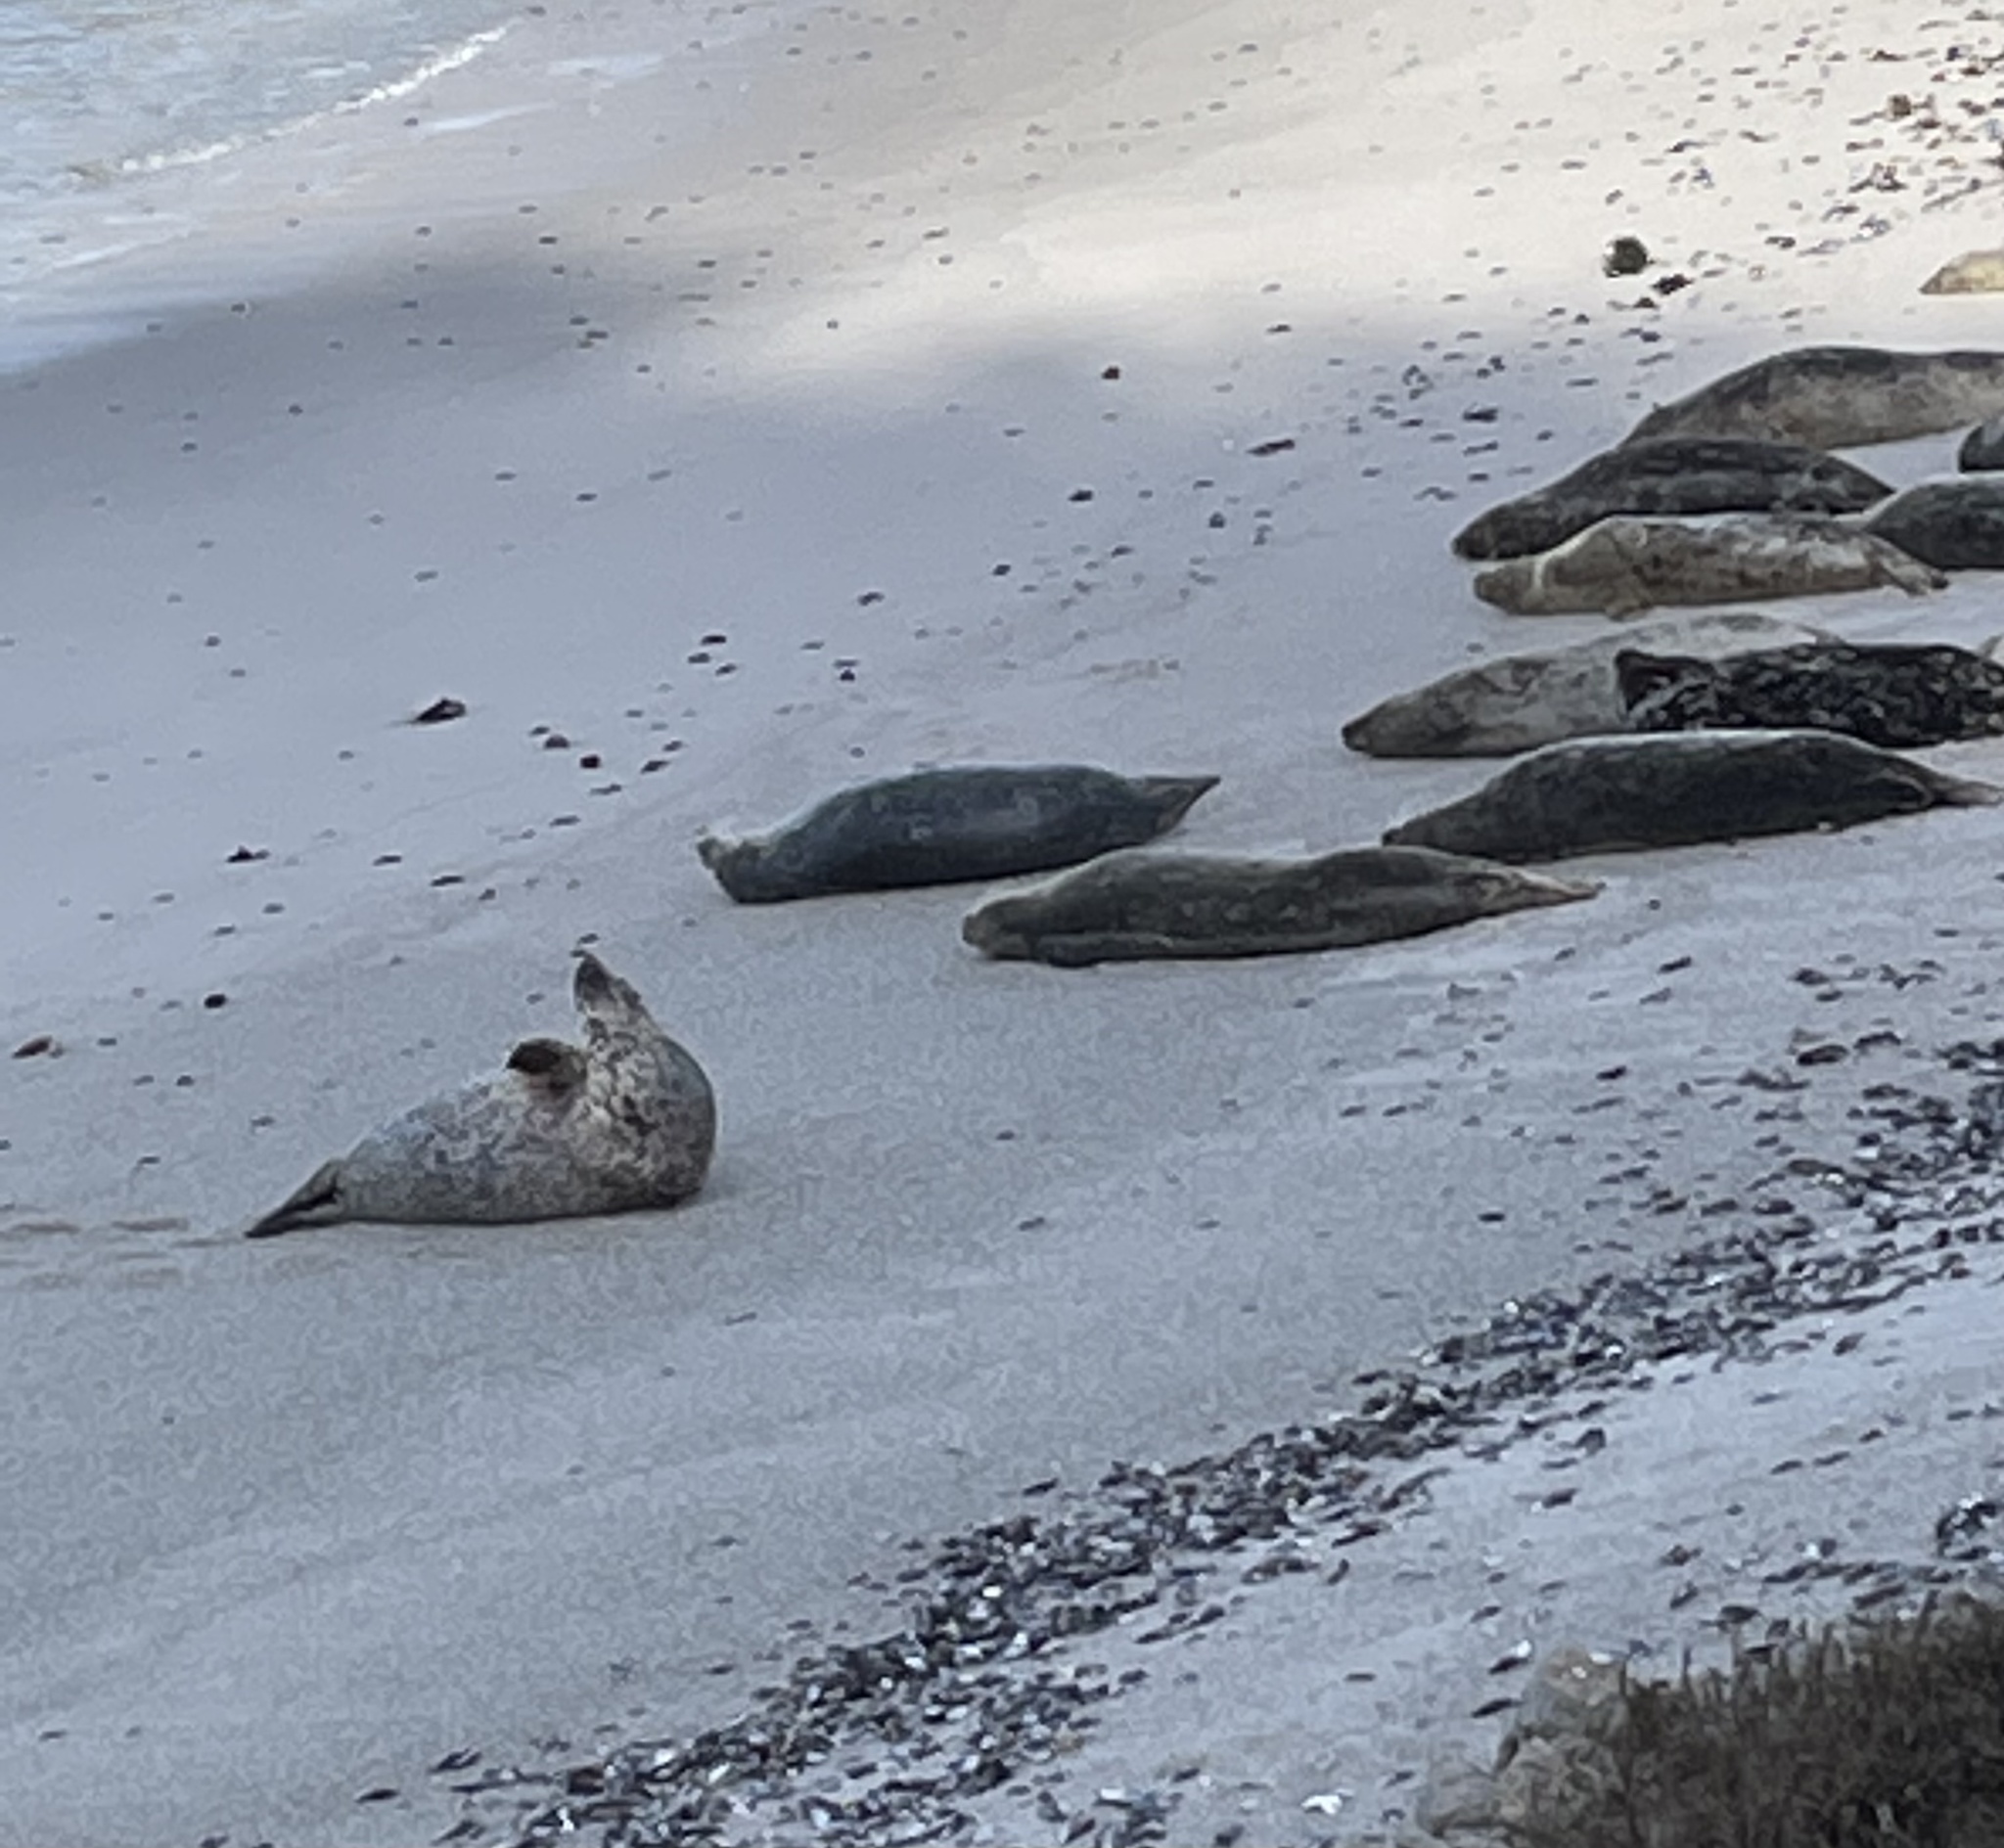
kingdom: Animalia
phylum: Chordata
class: Mammalia
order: Carnivora
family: Phocidae
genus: Phoca
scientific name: Phoca vitulina
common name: Harbor seal
